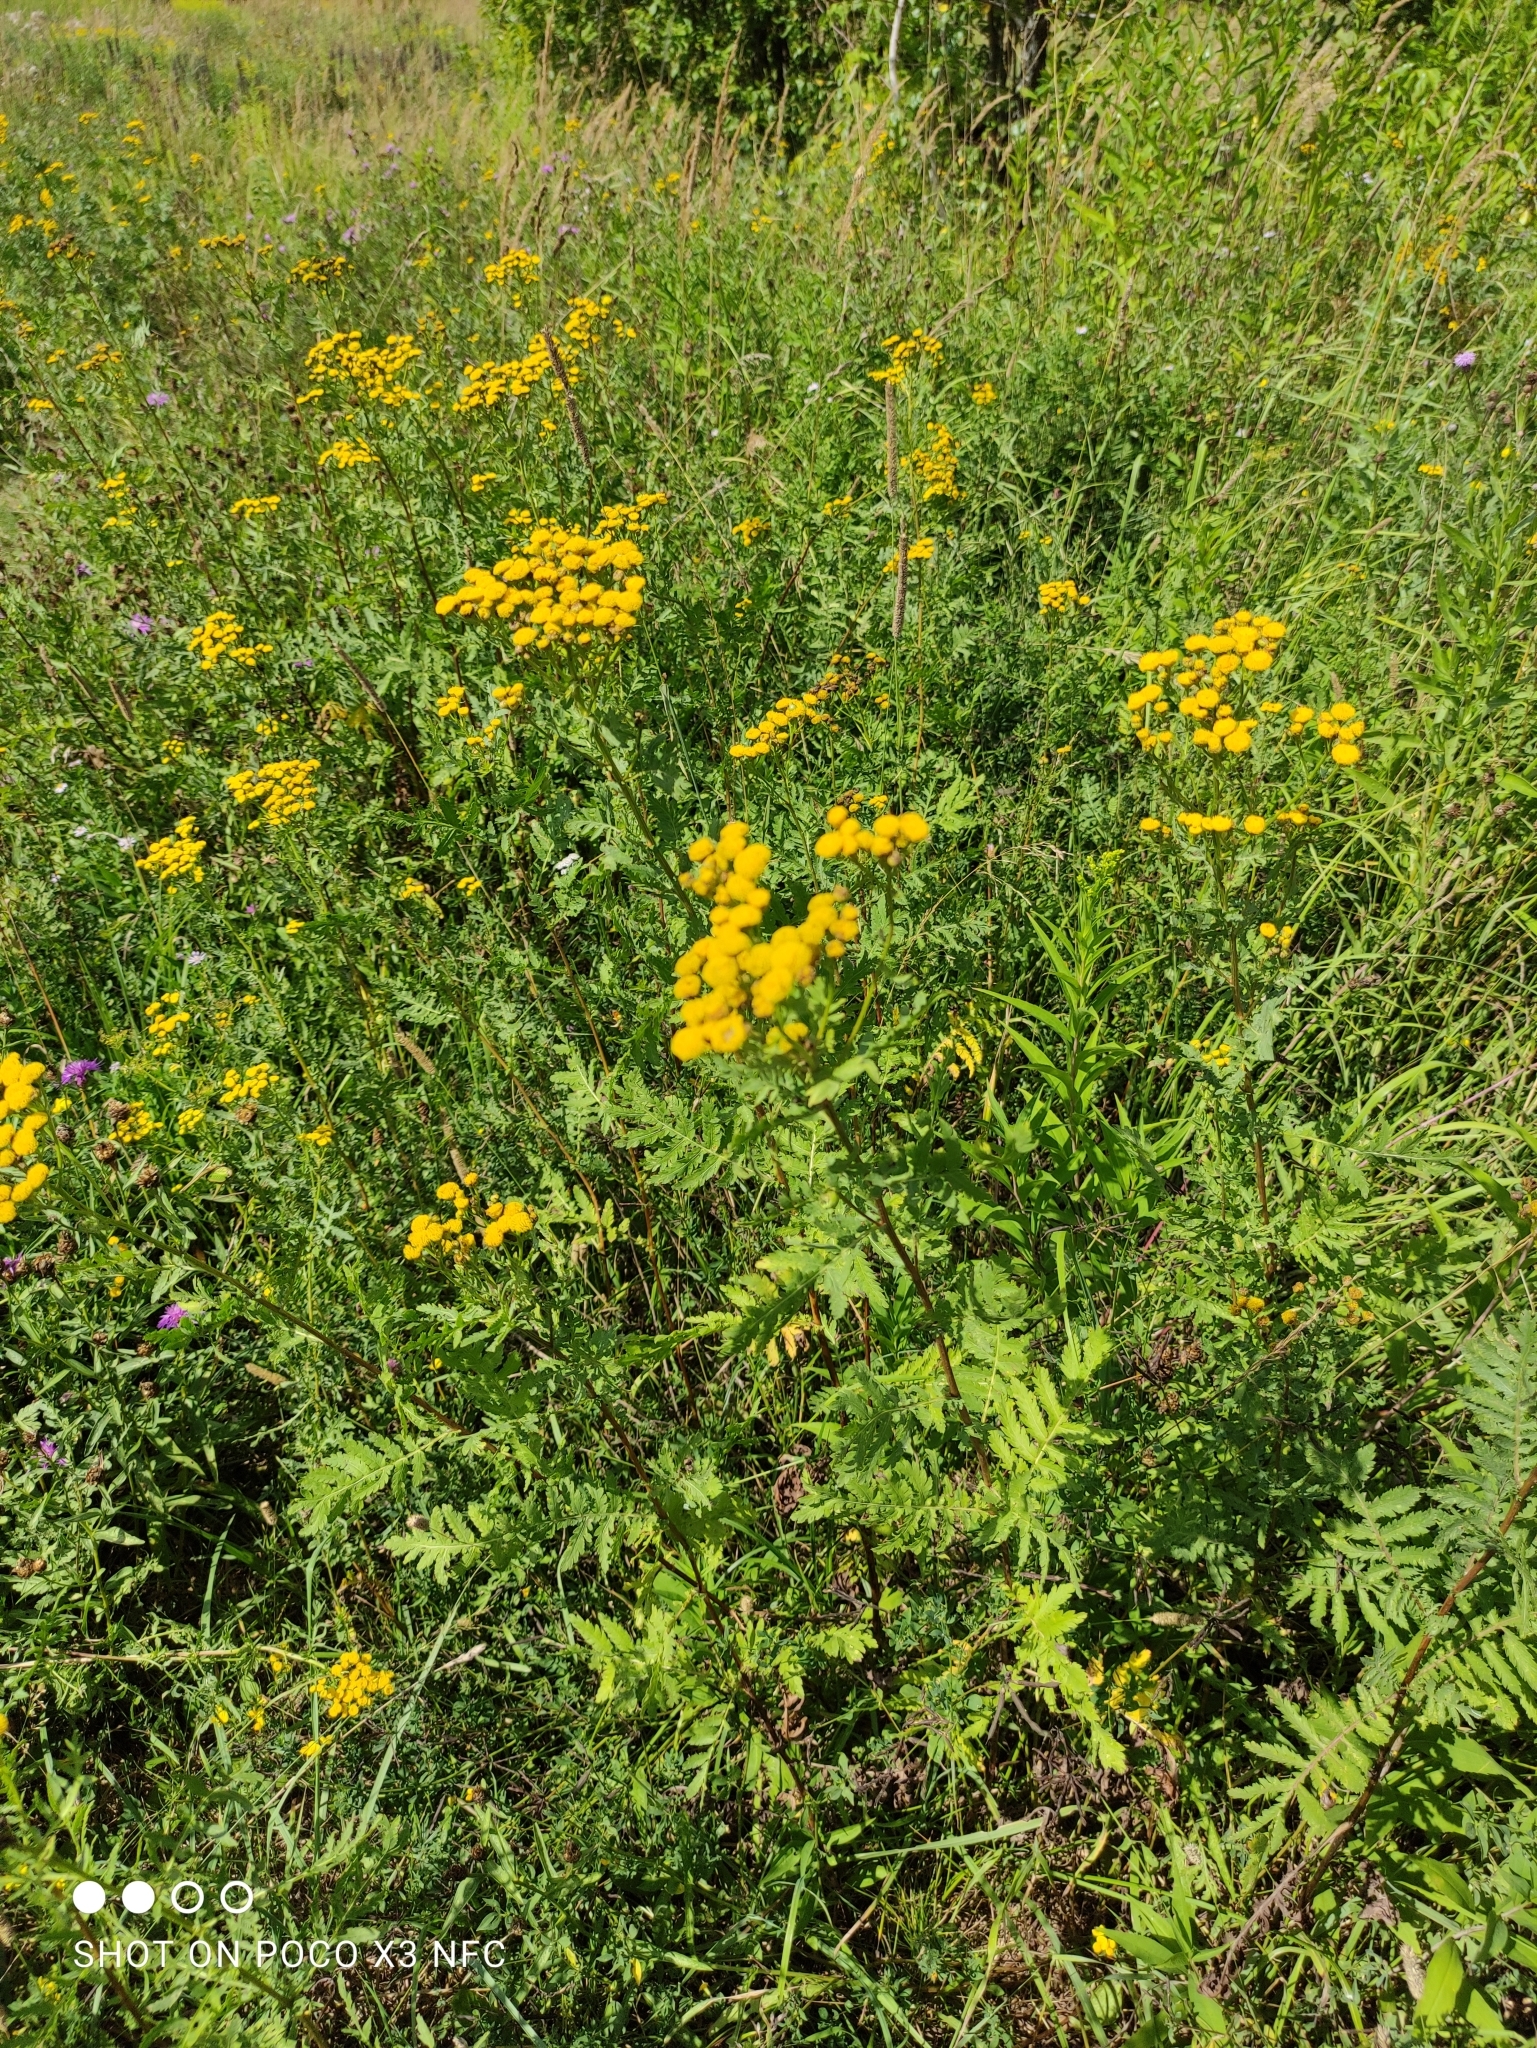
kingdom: Plantae
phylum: Tracheophyta
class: Magnoliopsida
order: Asterales
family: Asteraceae
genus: Tanacetum
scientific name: Tanacetum vulgare
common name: Common tansy
